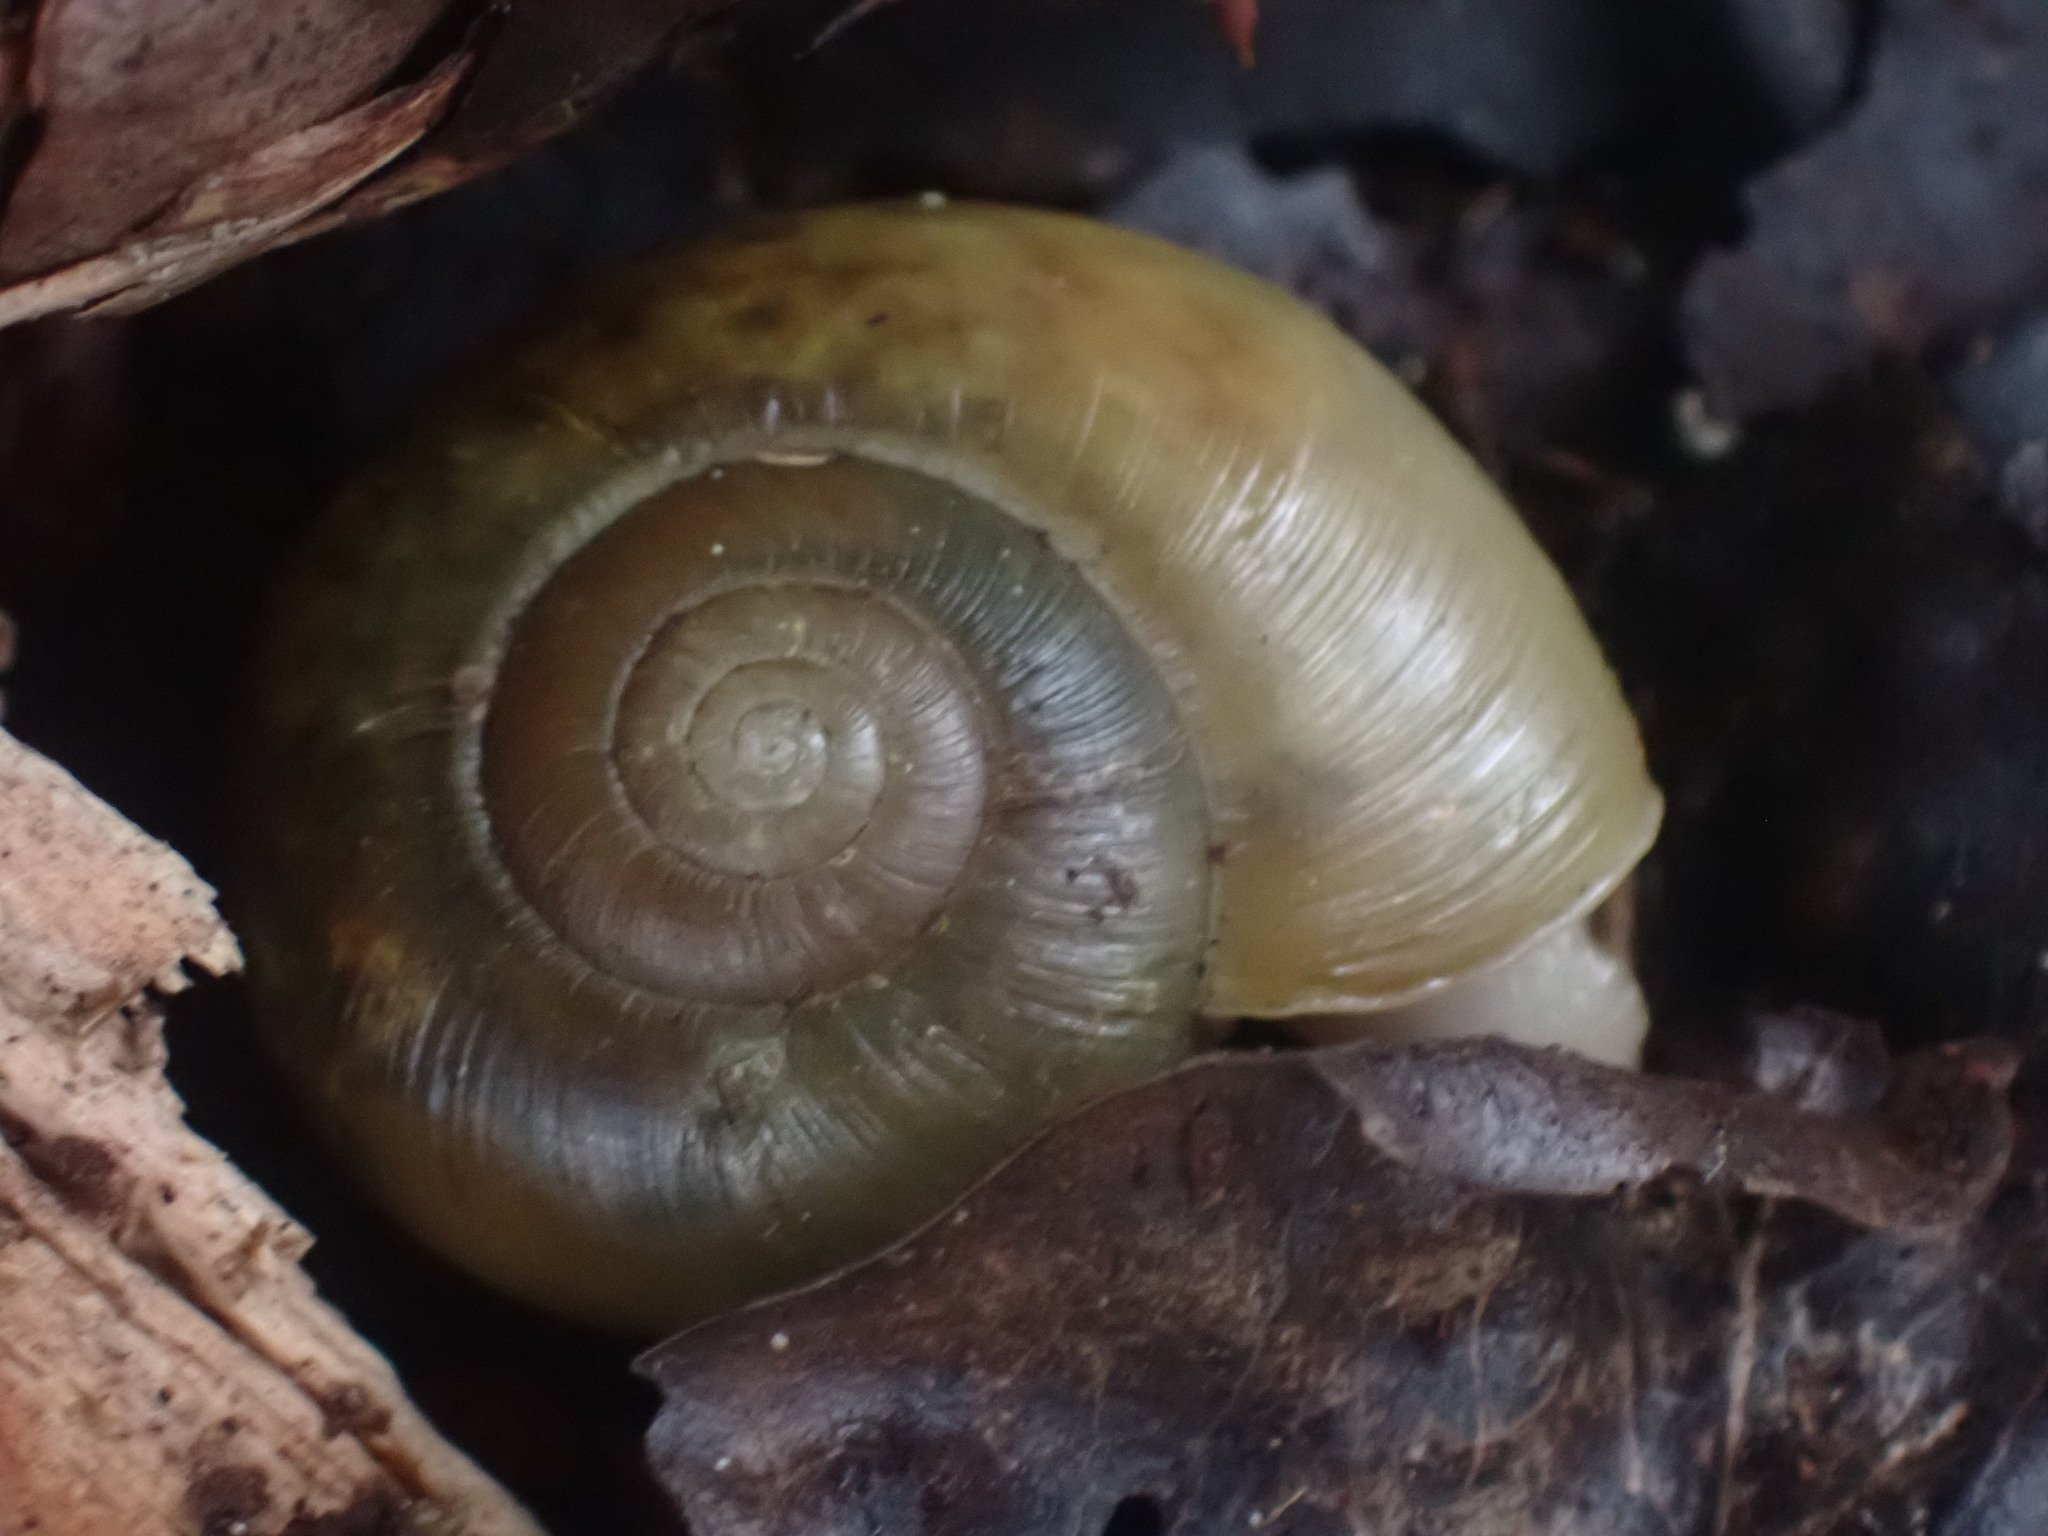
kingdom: Animalia
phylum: Mollusca
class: Gastropoda
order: Stylommatophora
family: Haplotrematidae
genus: Haplotrema
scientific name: Haplotrema vancouverense
